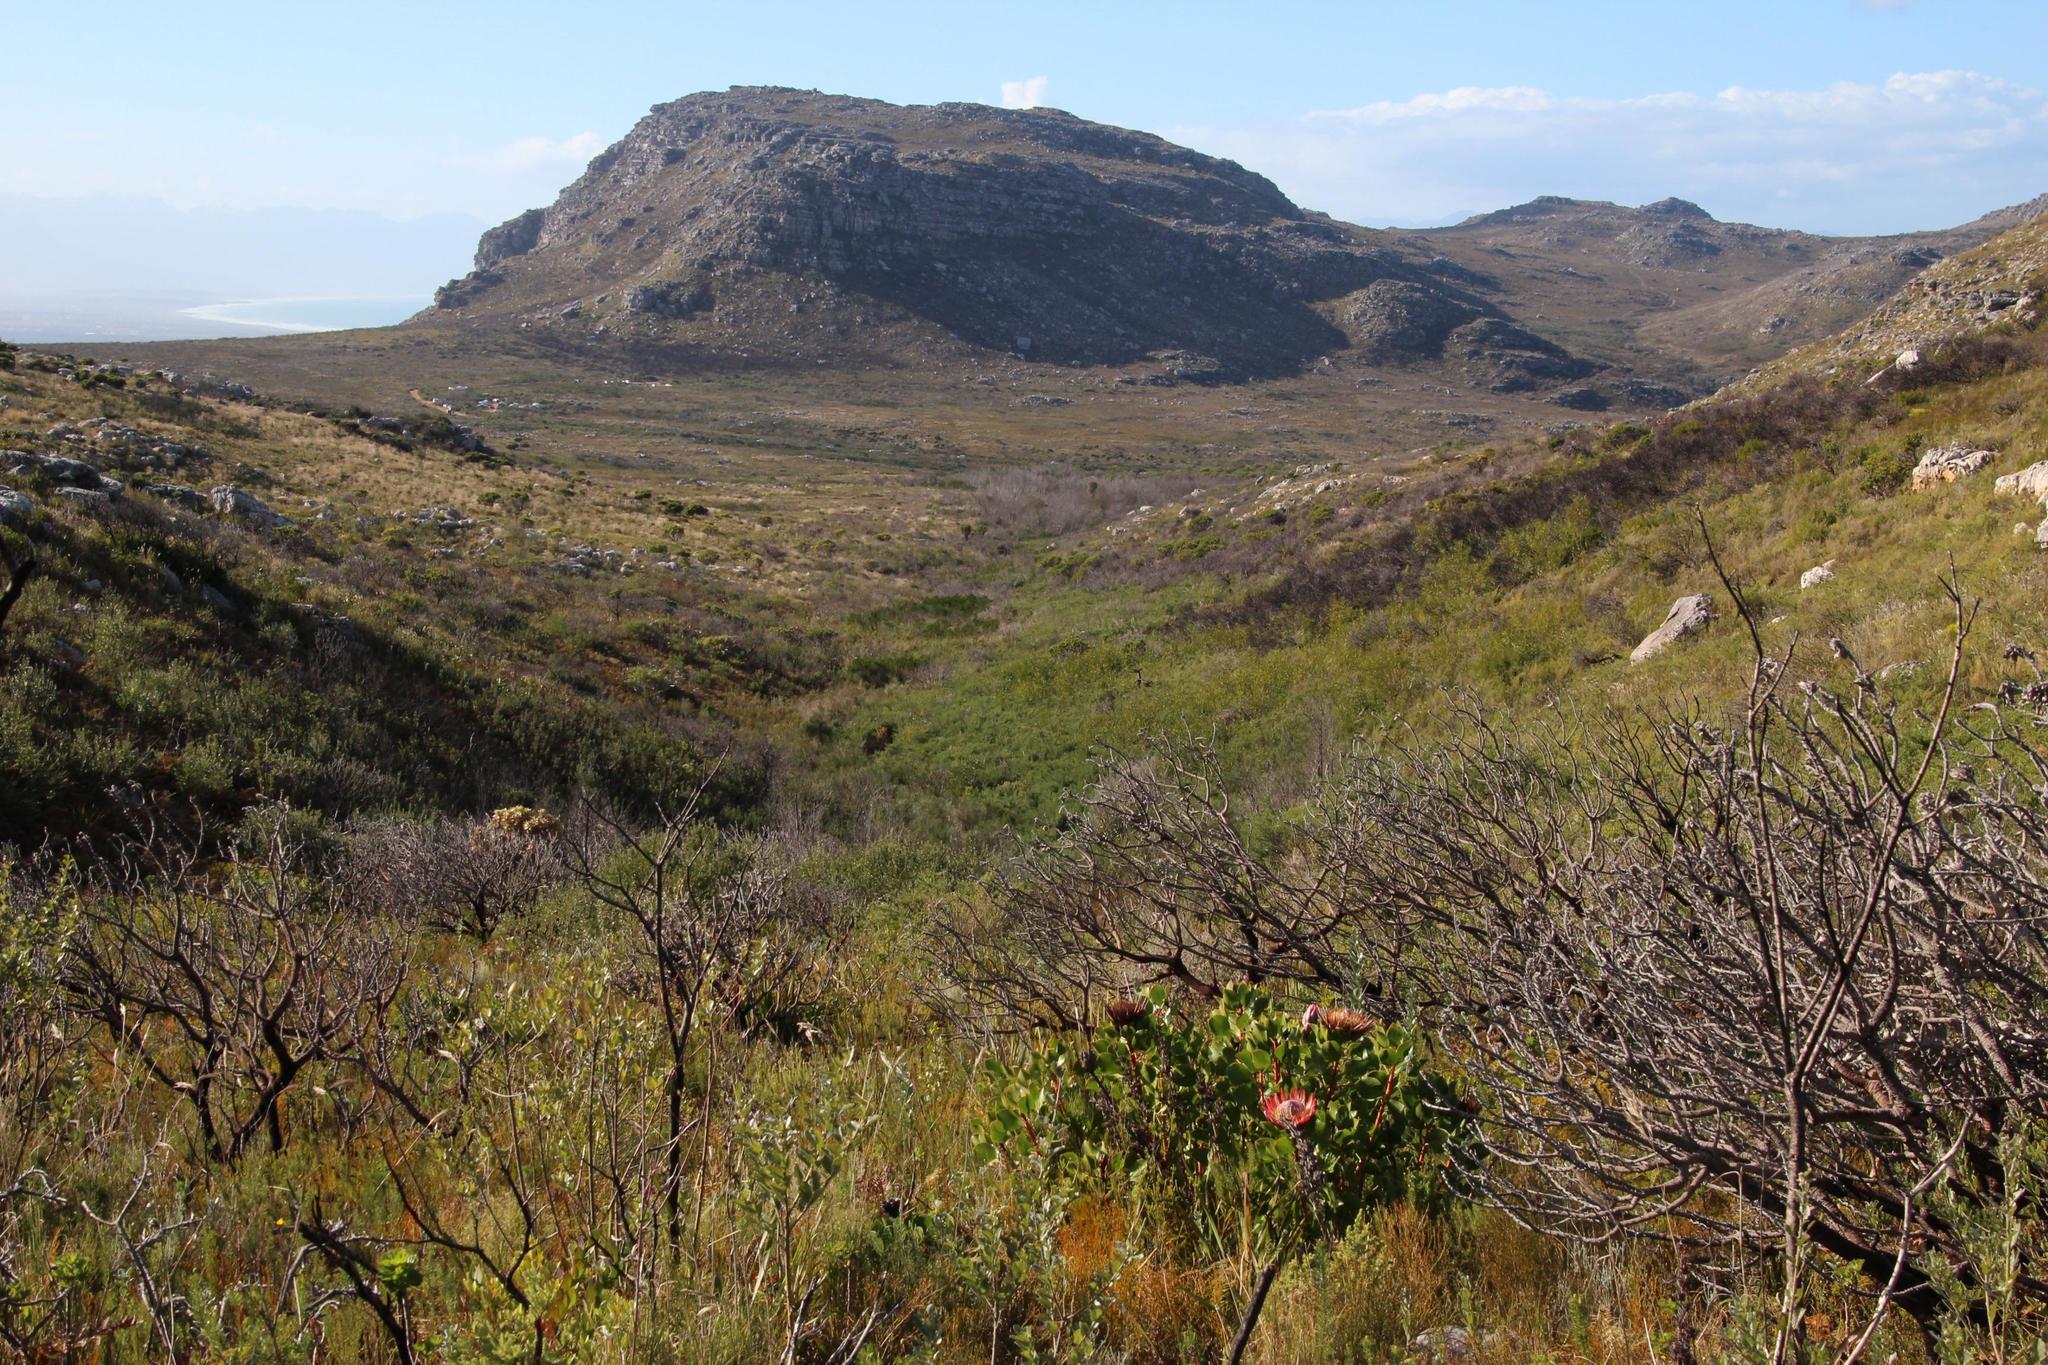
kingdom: Plantae
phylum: Tracheophyta
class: Magnoliopsida
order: Proteales
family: Proteaceae
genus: Protea
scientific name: Protea cynaroides
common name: King protea
